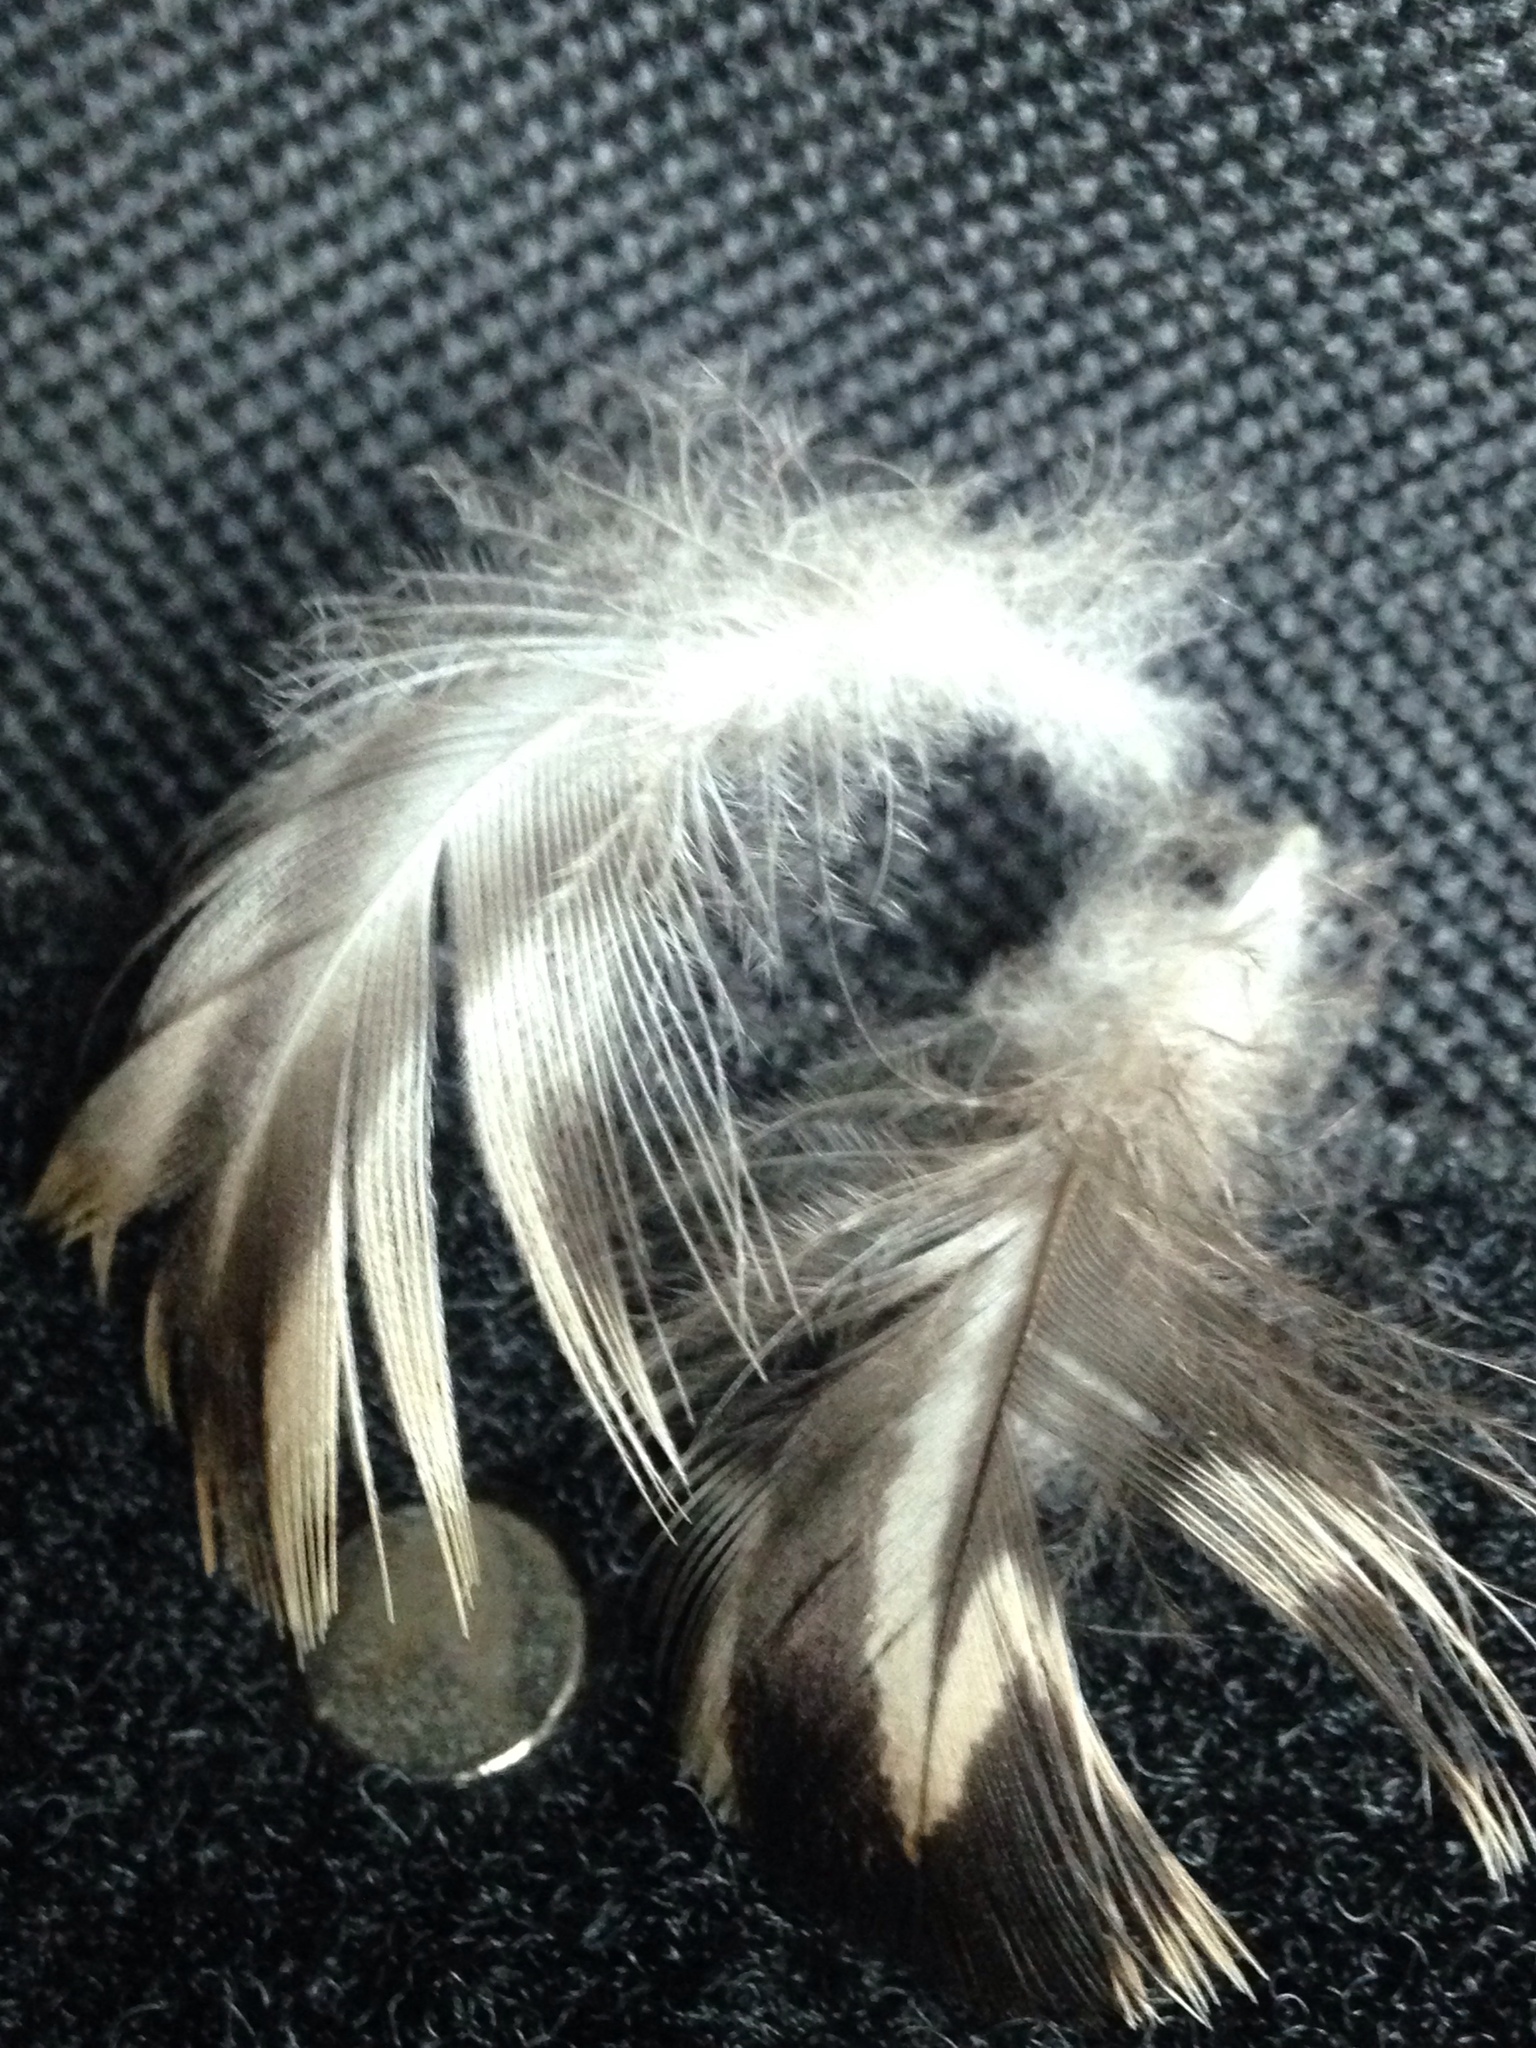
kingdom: Animalia
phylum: Chordata
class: Aves
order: Anseriformes
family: Anatidae
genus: Anas
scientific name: Anas platyrhynchos
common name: Mallard
